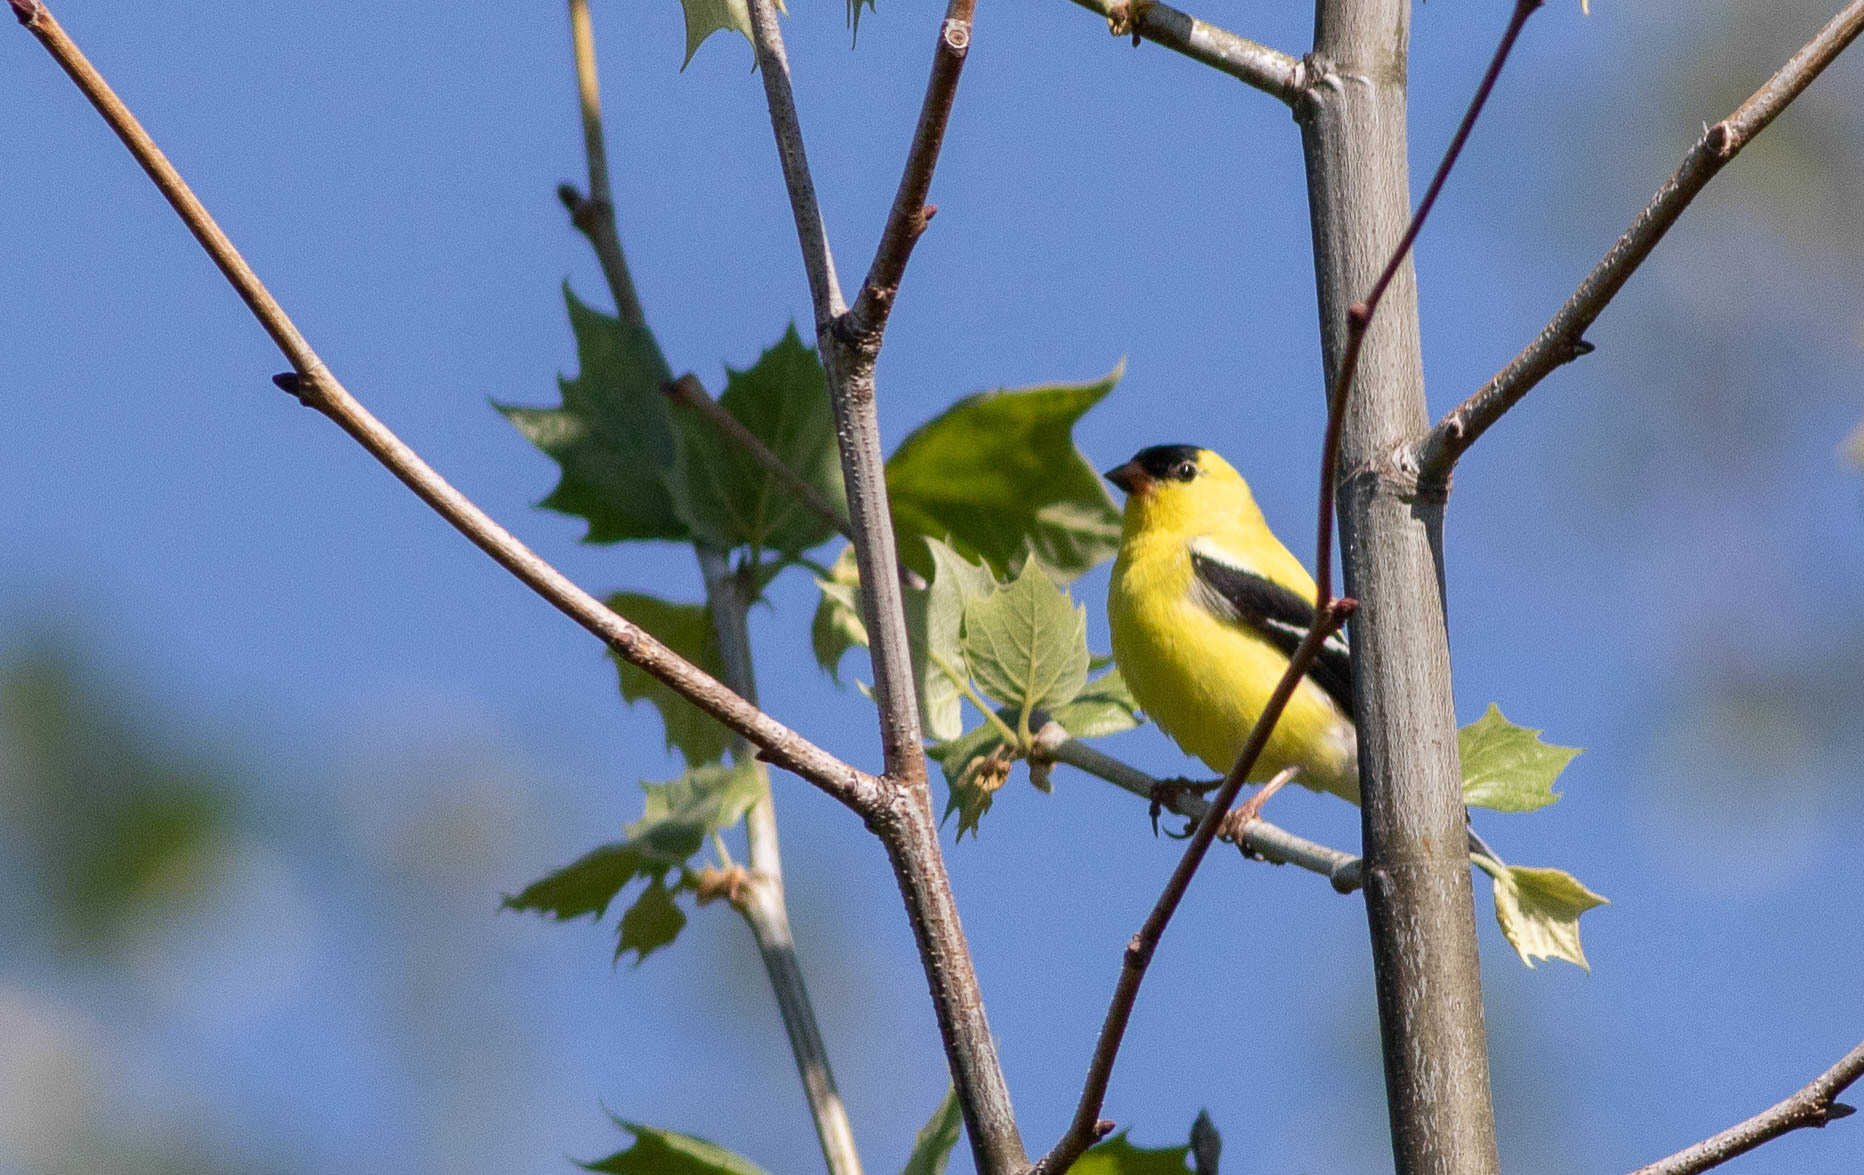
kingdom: Animalia
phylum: Chordata
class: Aves
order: Passeriformes
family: Fringillidae
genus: Spinus
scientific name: Spinus tristis
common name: American goldfinch
